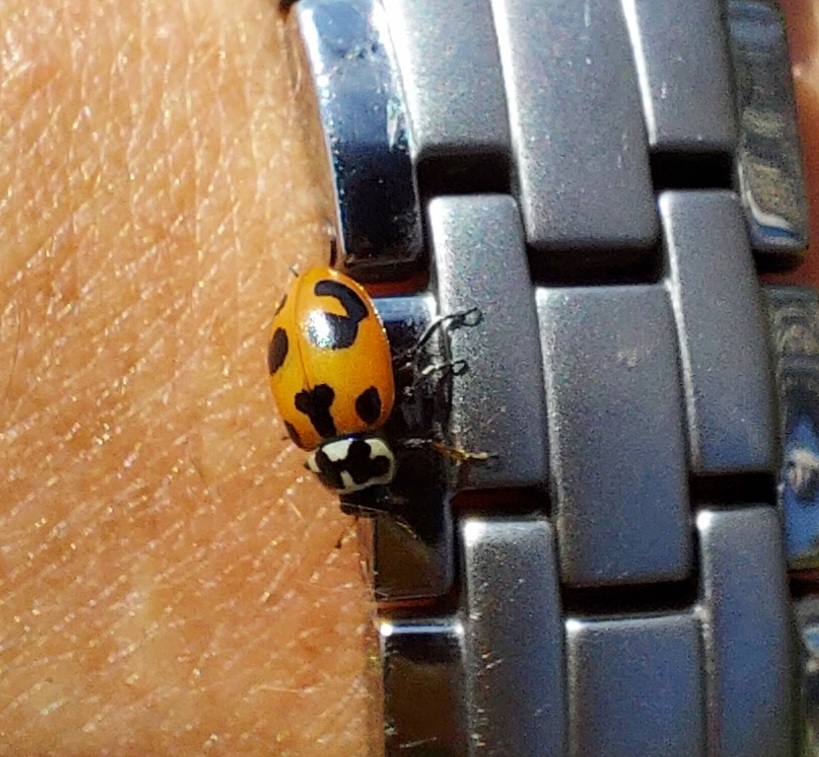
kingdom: Animalia
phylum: Arthropoda
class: Insecta
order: Coleoptera
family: Coccinellidae
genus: Hippodamia
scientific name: Hippodamia parenthesis
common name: Parenthesis lady beetle
